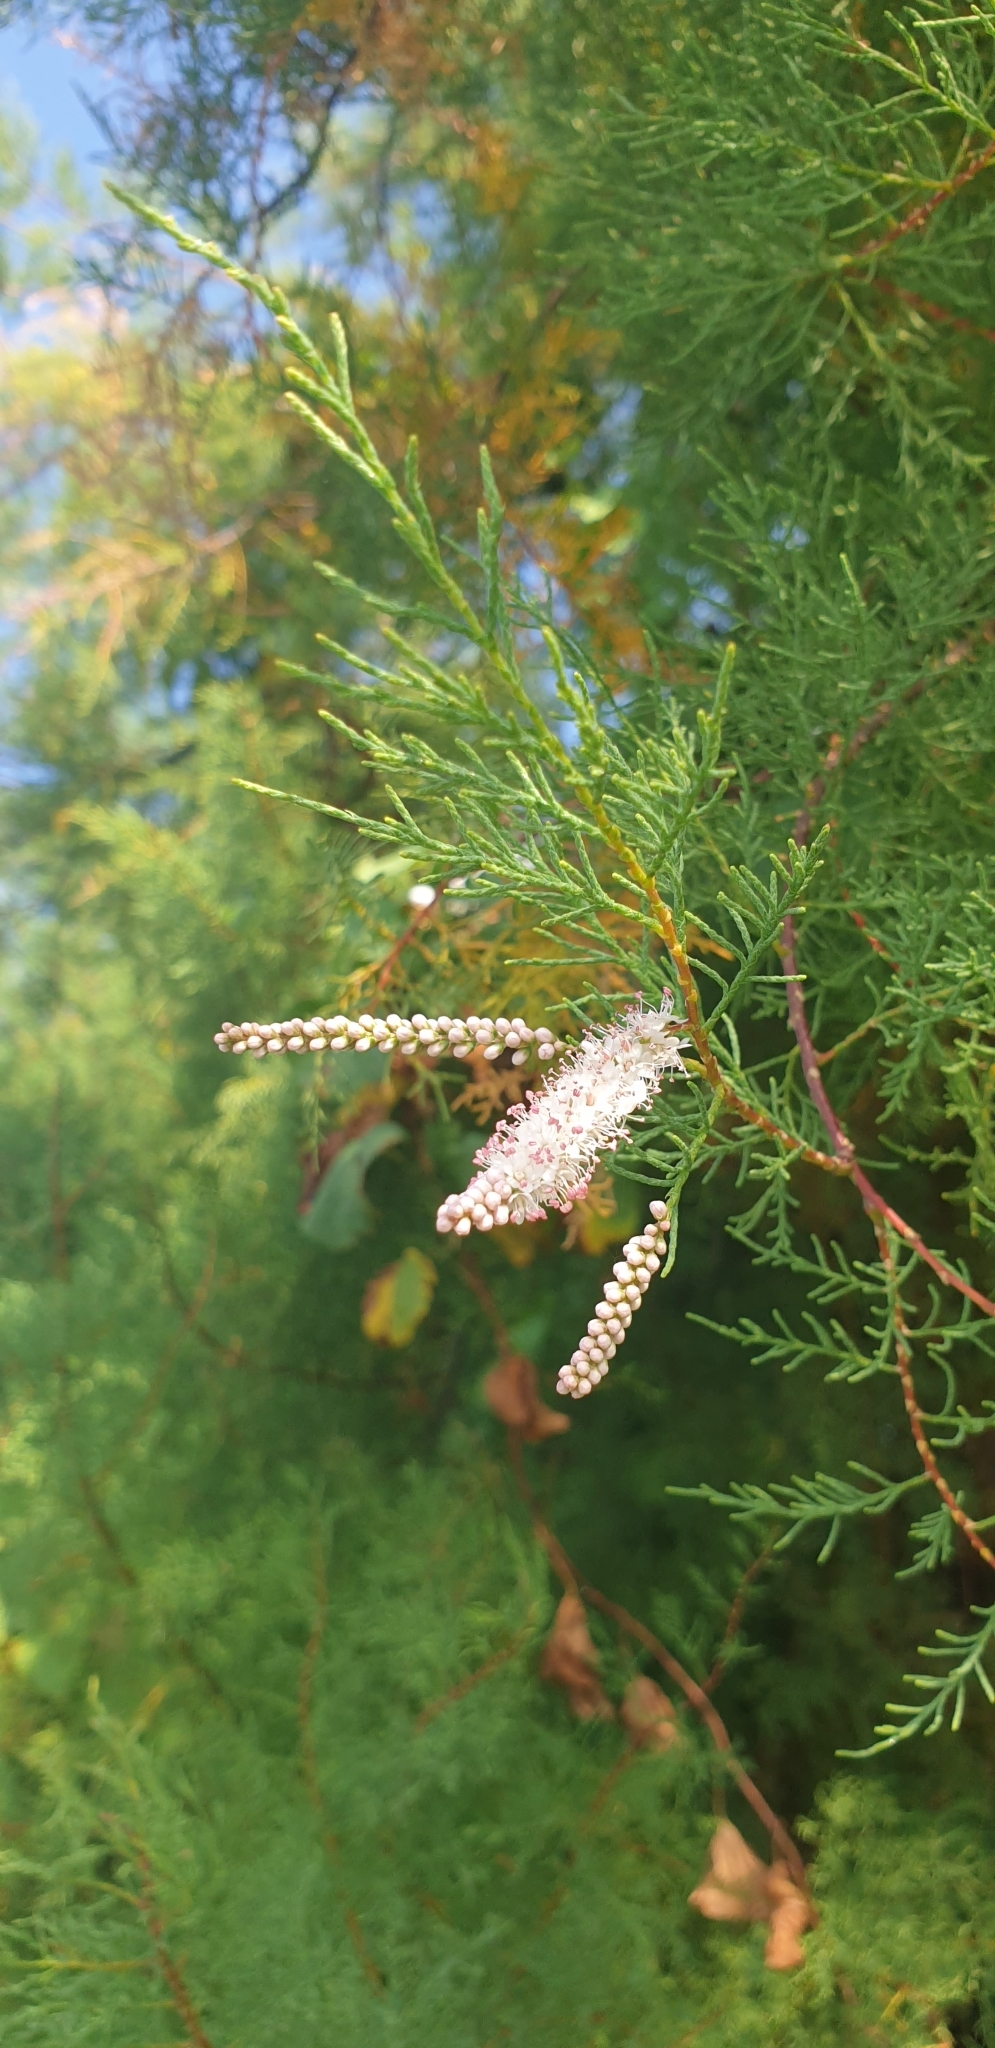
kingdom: Plantae
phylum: Tracheophyta
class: Magnoliopsida
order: Caryophyllales
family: Tamaricaceae
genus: Tamarix
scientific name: Tamarix gallica
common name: Tamarisk
